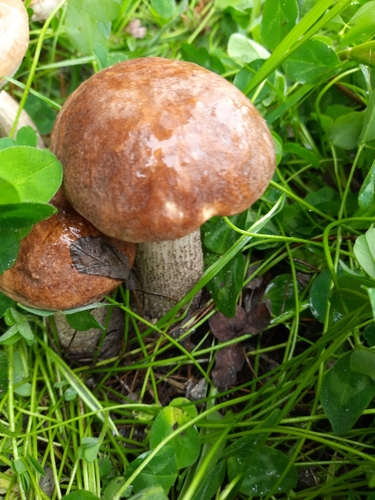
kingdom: Fungi
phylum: Basidiomycota
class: Agaricomycetes
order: Boletales
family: Boletaceae
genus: Leccinum
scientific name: Leccinum scabrum
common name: Blushing bolete
